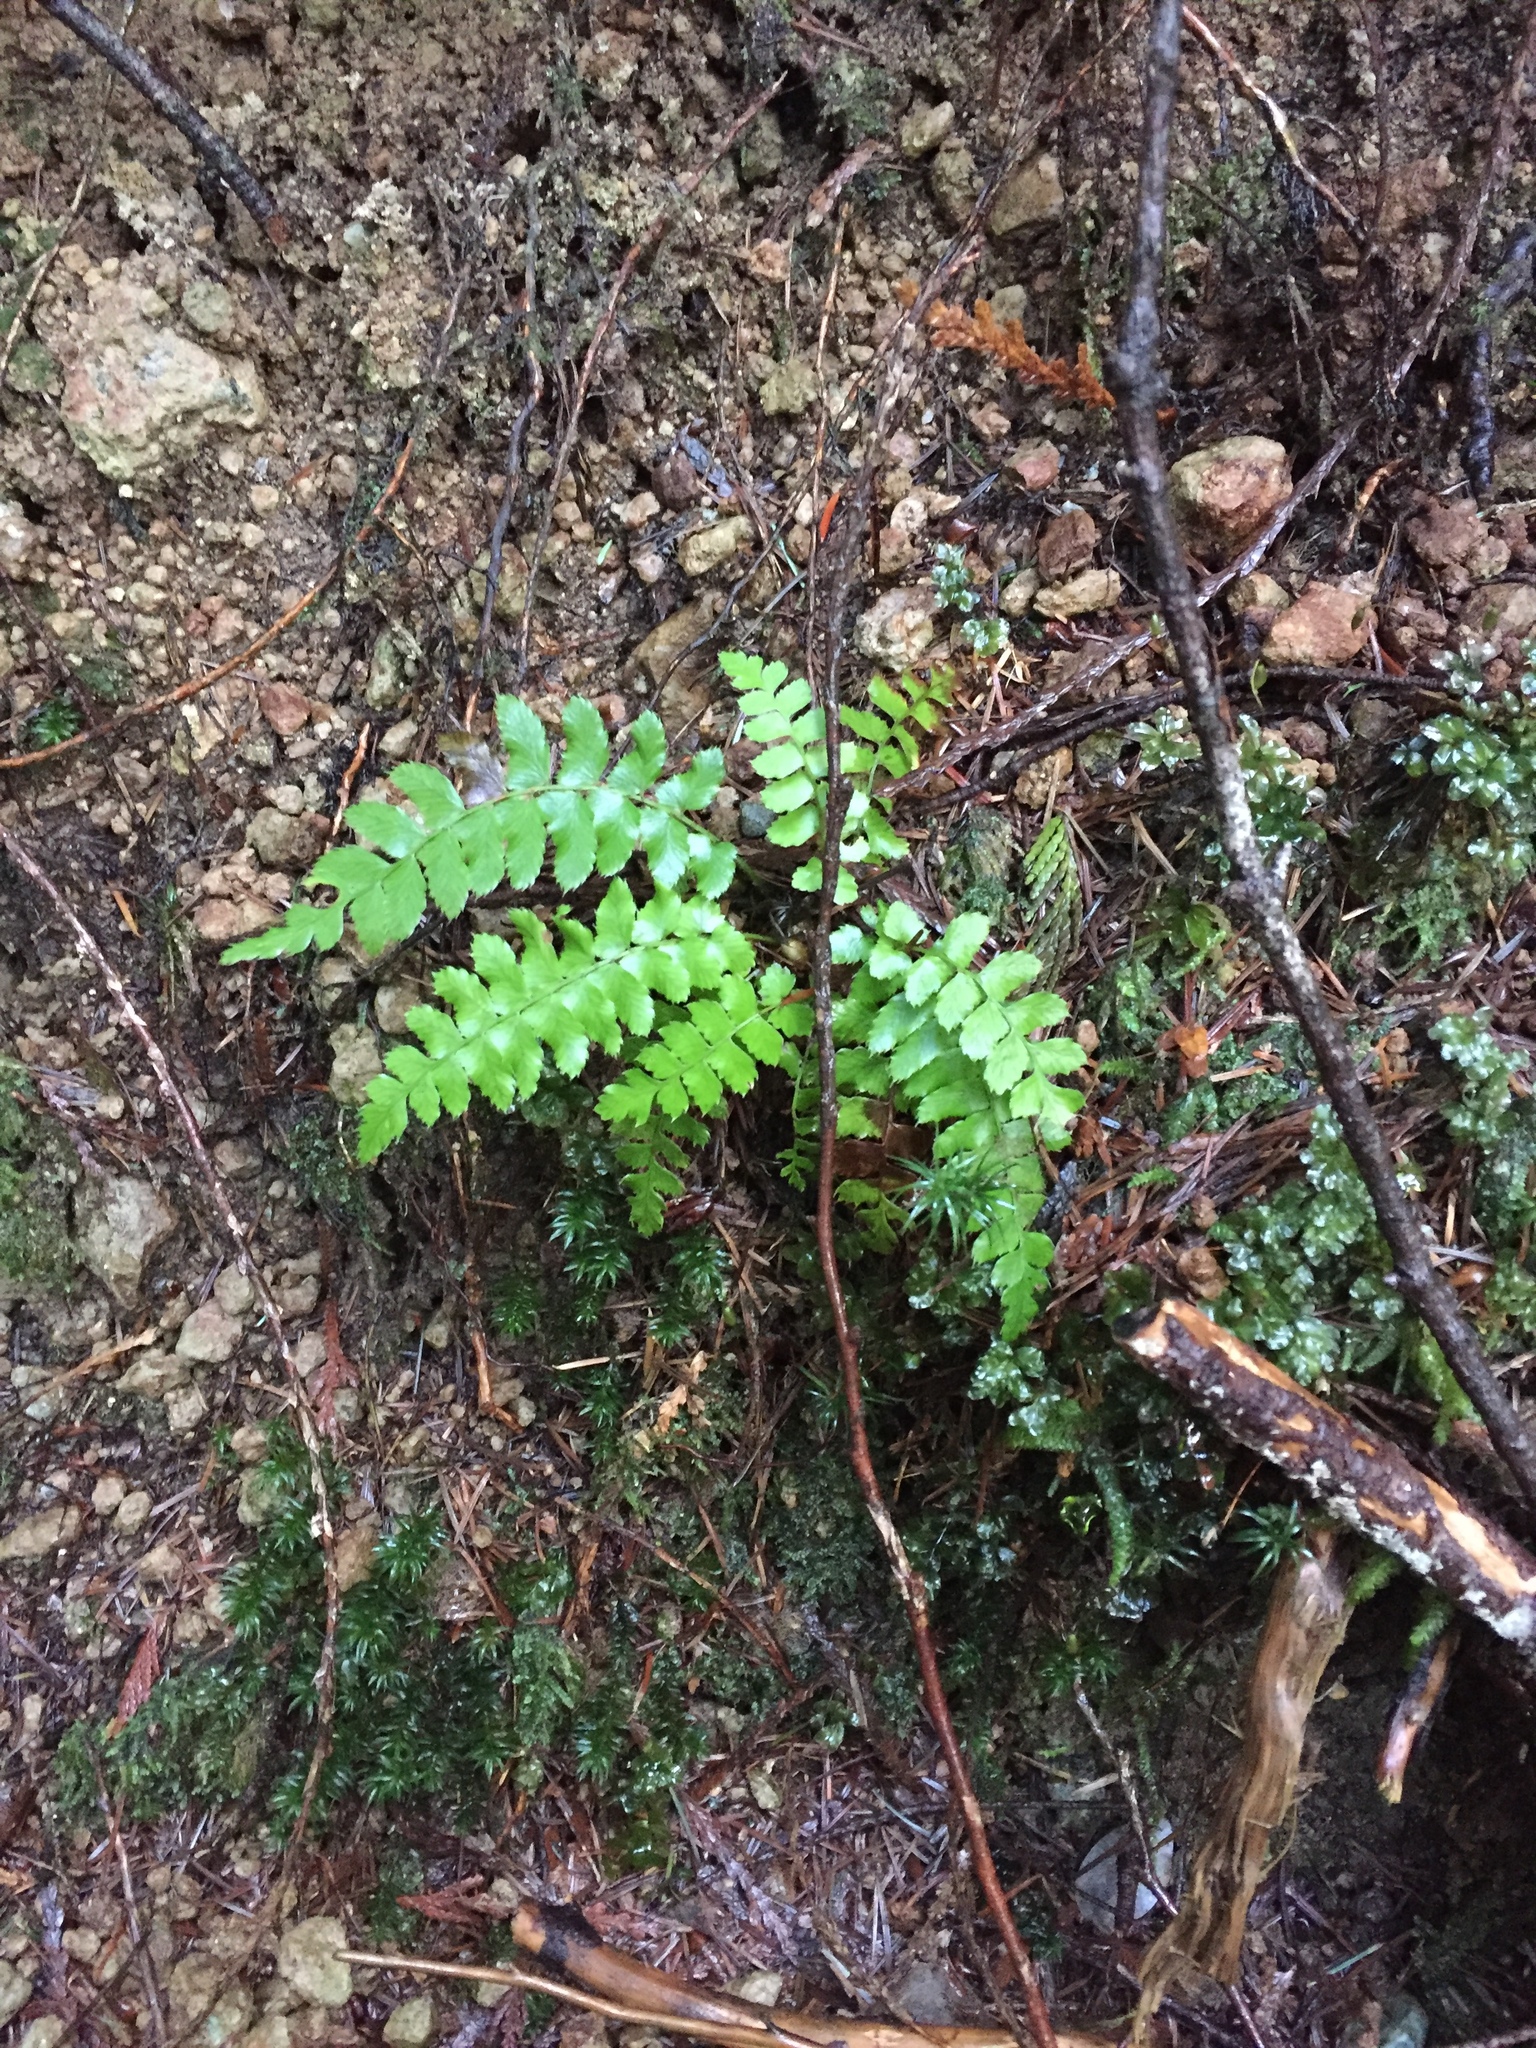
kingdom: Plantae
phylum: Tracheophyta
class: Polypodiopsida
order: Polypodiales
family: Dryopteridaceae
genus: Polystichum
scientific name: Polystichum munitum
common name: Western sword-fern
